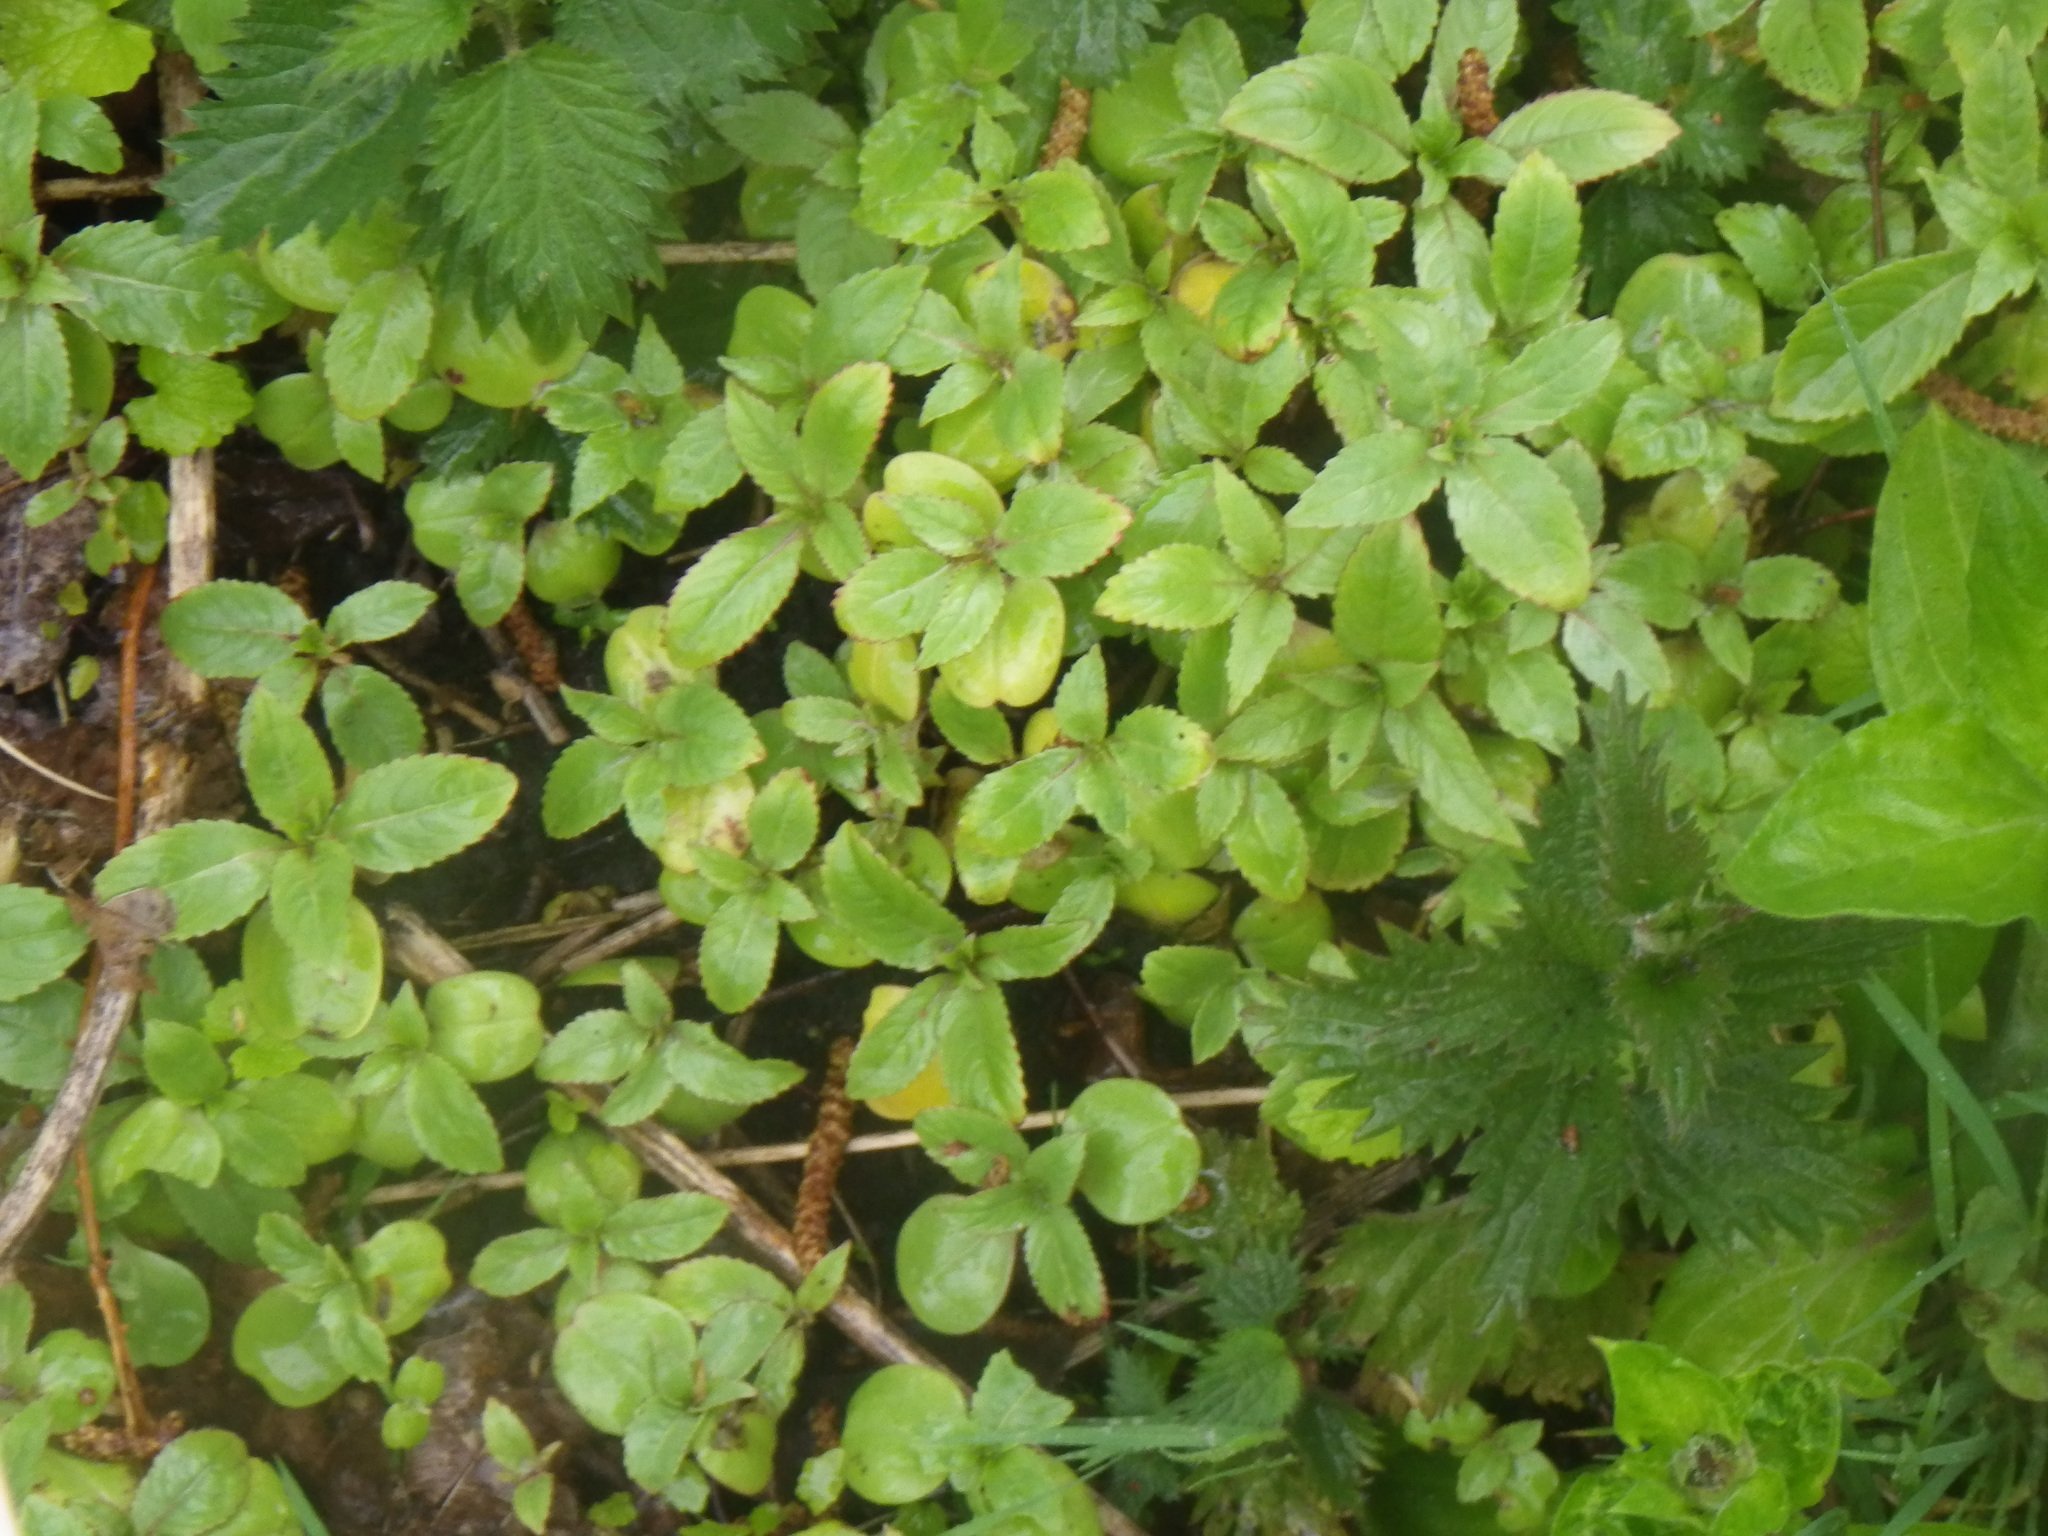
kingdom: Plantae
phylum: Tracheophyta
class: Magnoliopsida
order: Ericales
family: Balsaminaceae
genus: Impatiens
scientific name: Impatiens glandulifera
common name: Himalayan balsam
